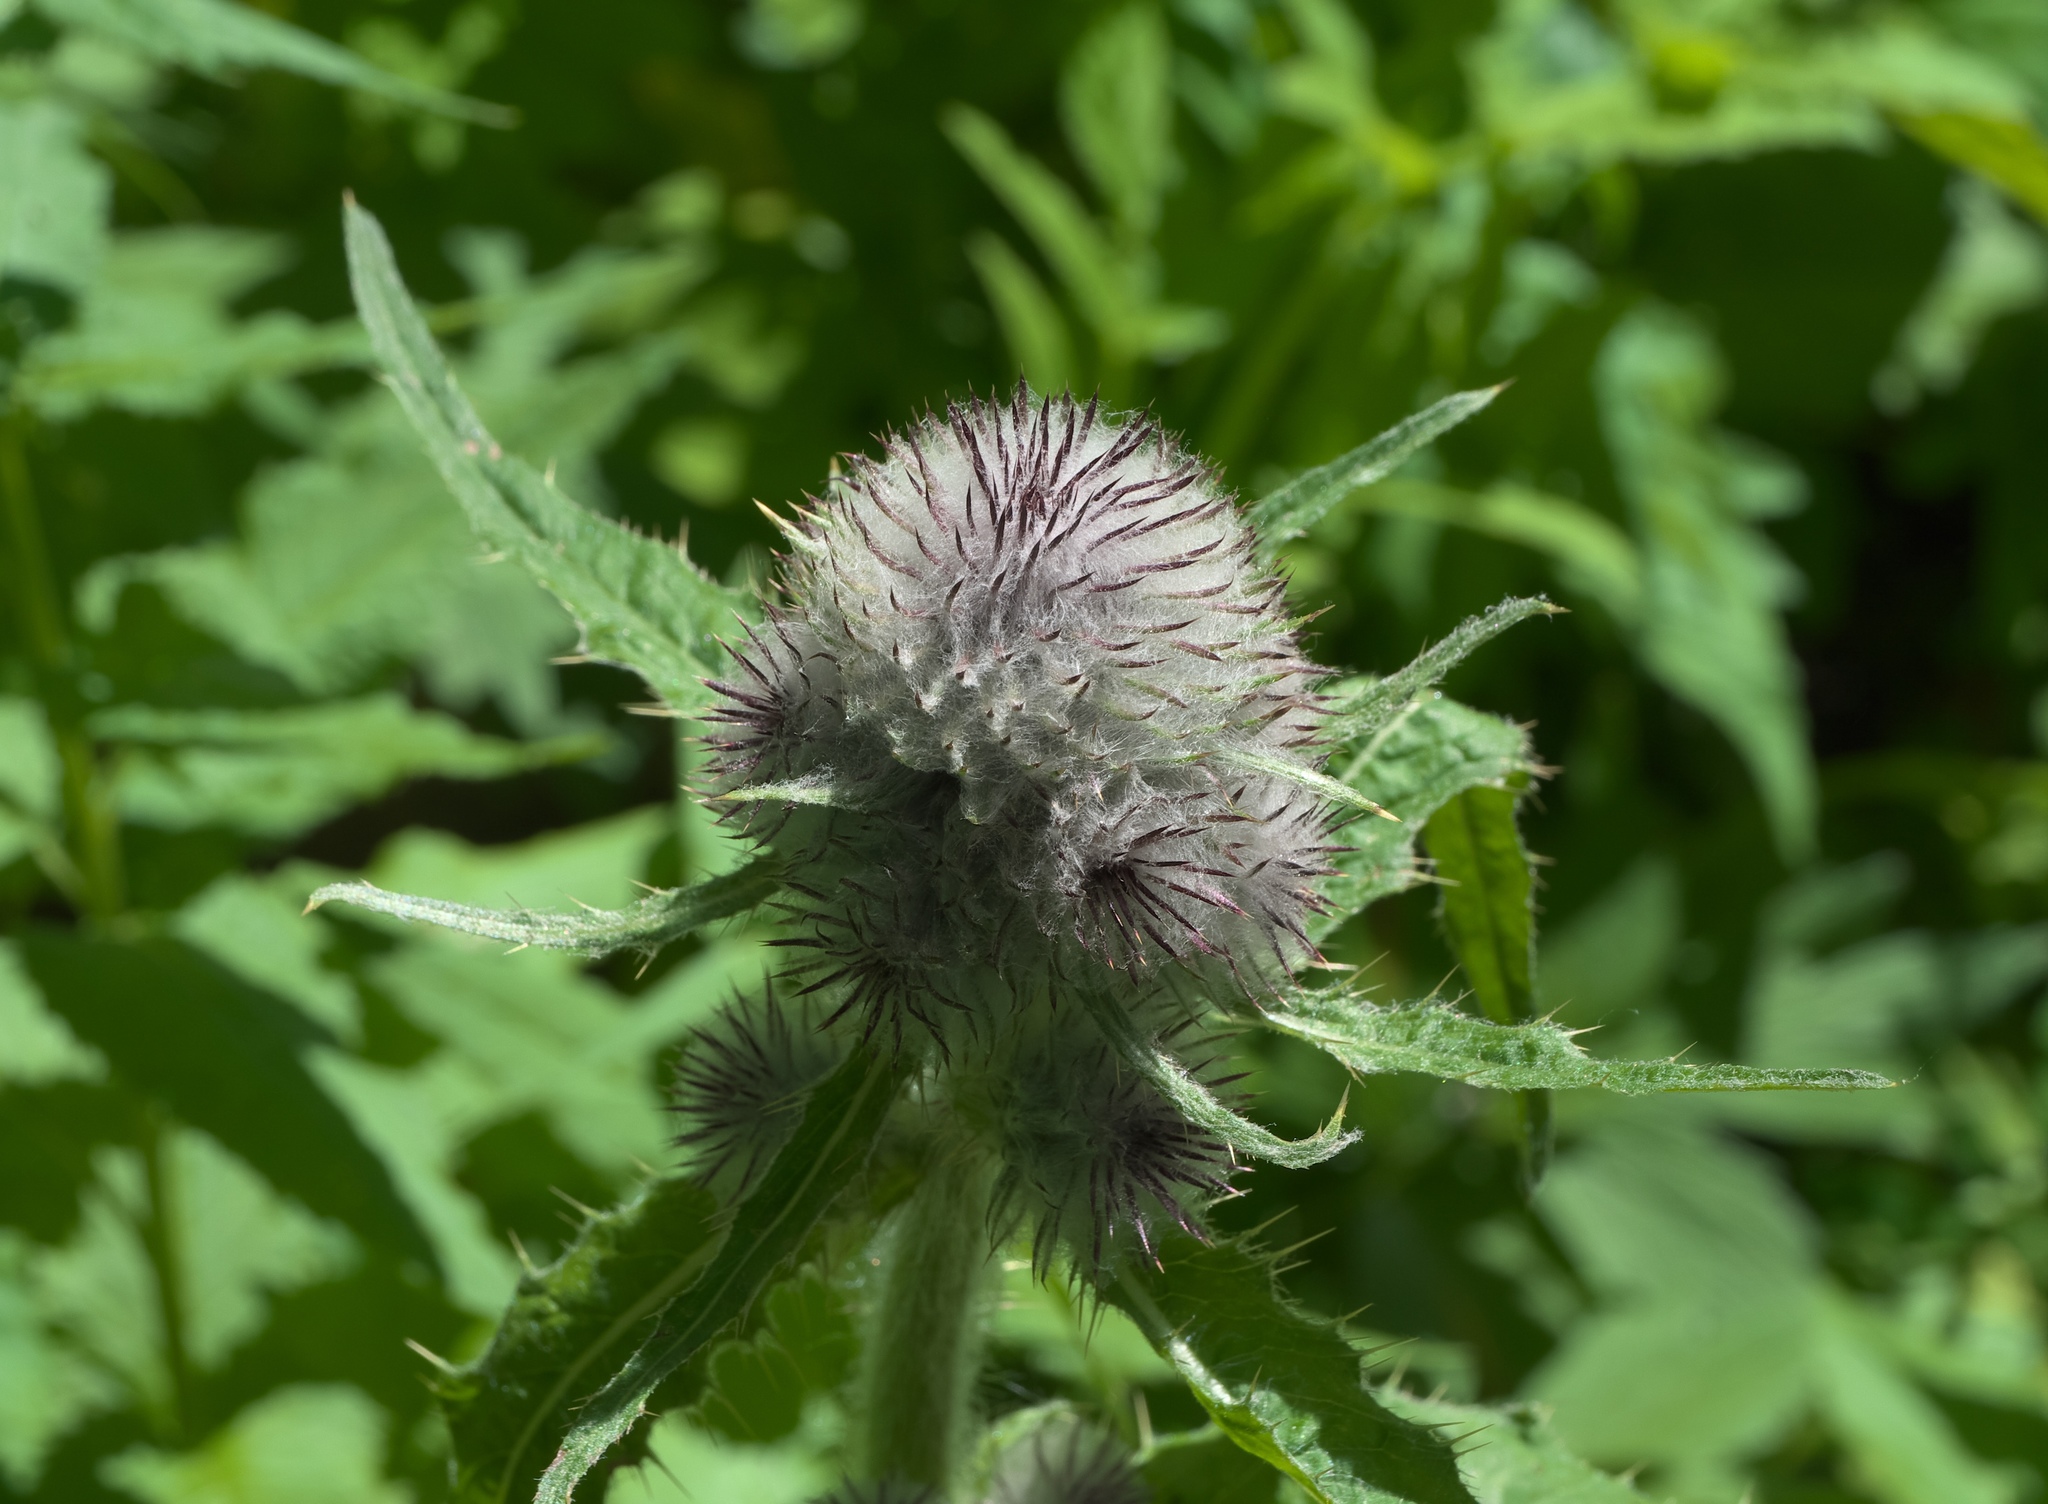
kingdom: Plantae
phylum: Tracheophyta
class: Magnoliopsida
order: Asterales
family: Asteraceae
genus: Cirsium
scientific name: Cirsium edule
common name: Indian thistle
